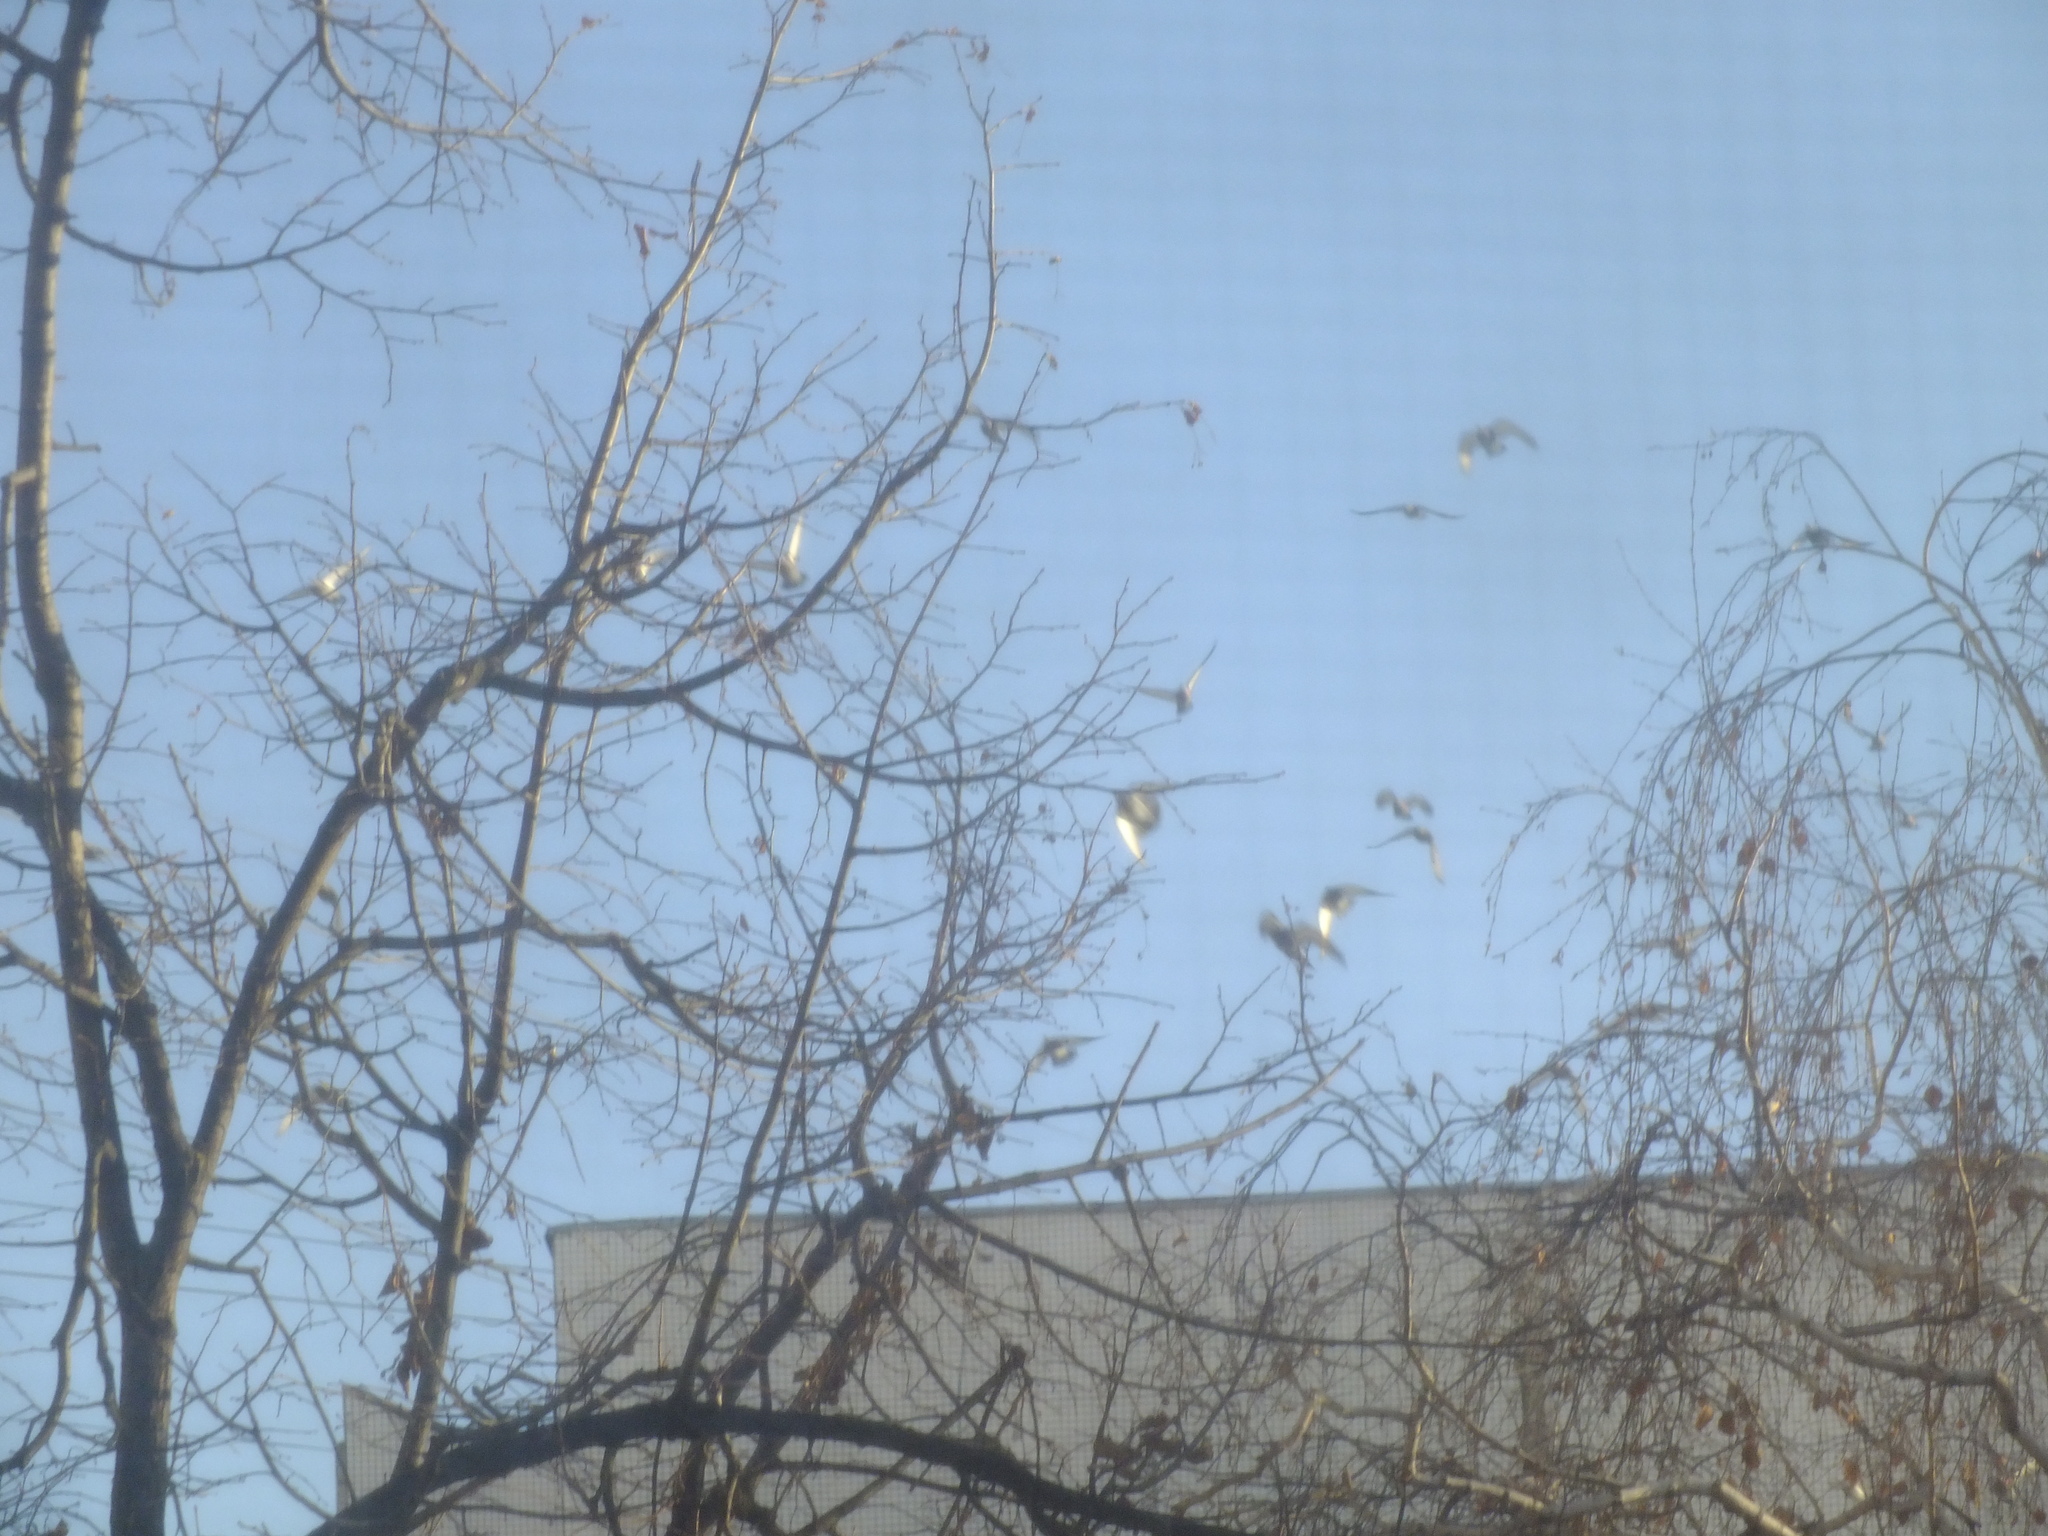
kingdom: Animalia
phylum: Chordata
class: Aves
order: Columbiformes
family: Columbidae
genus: Columba
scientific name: Columba livia
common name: Rock pigeon
